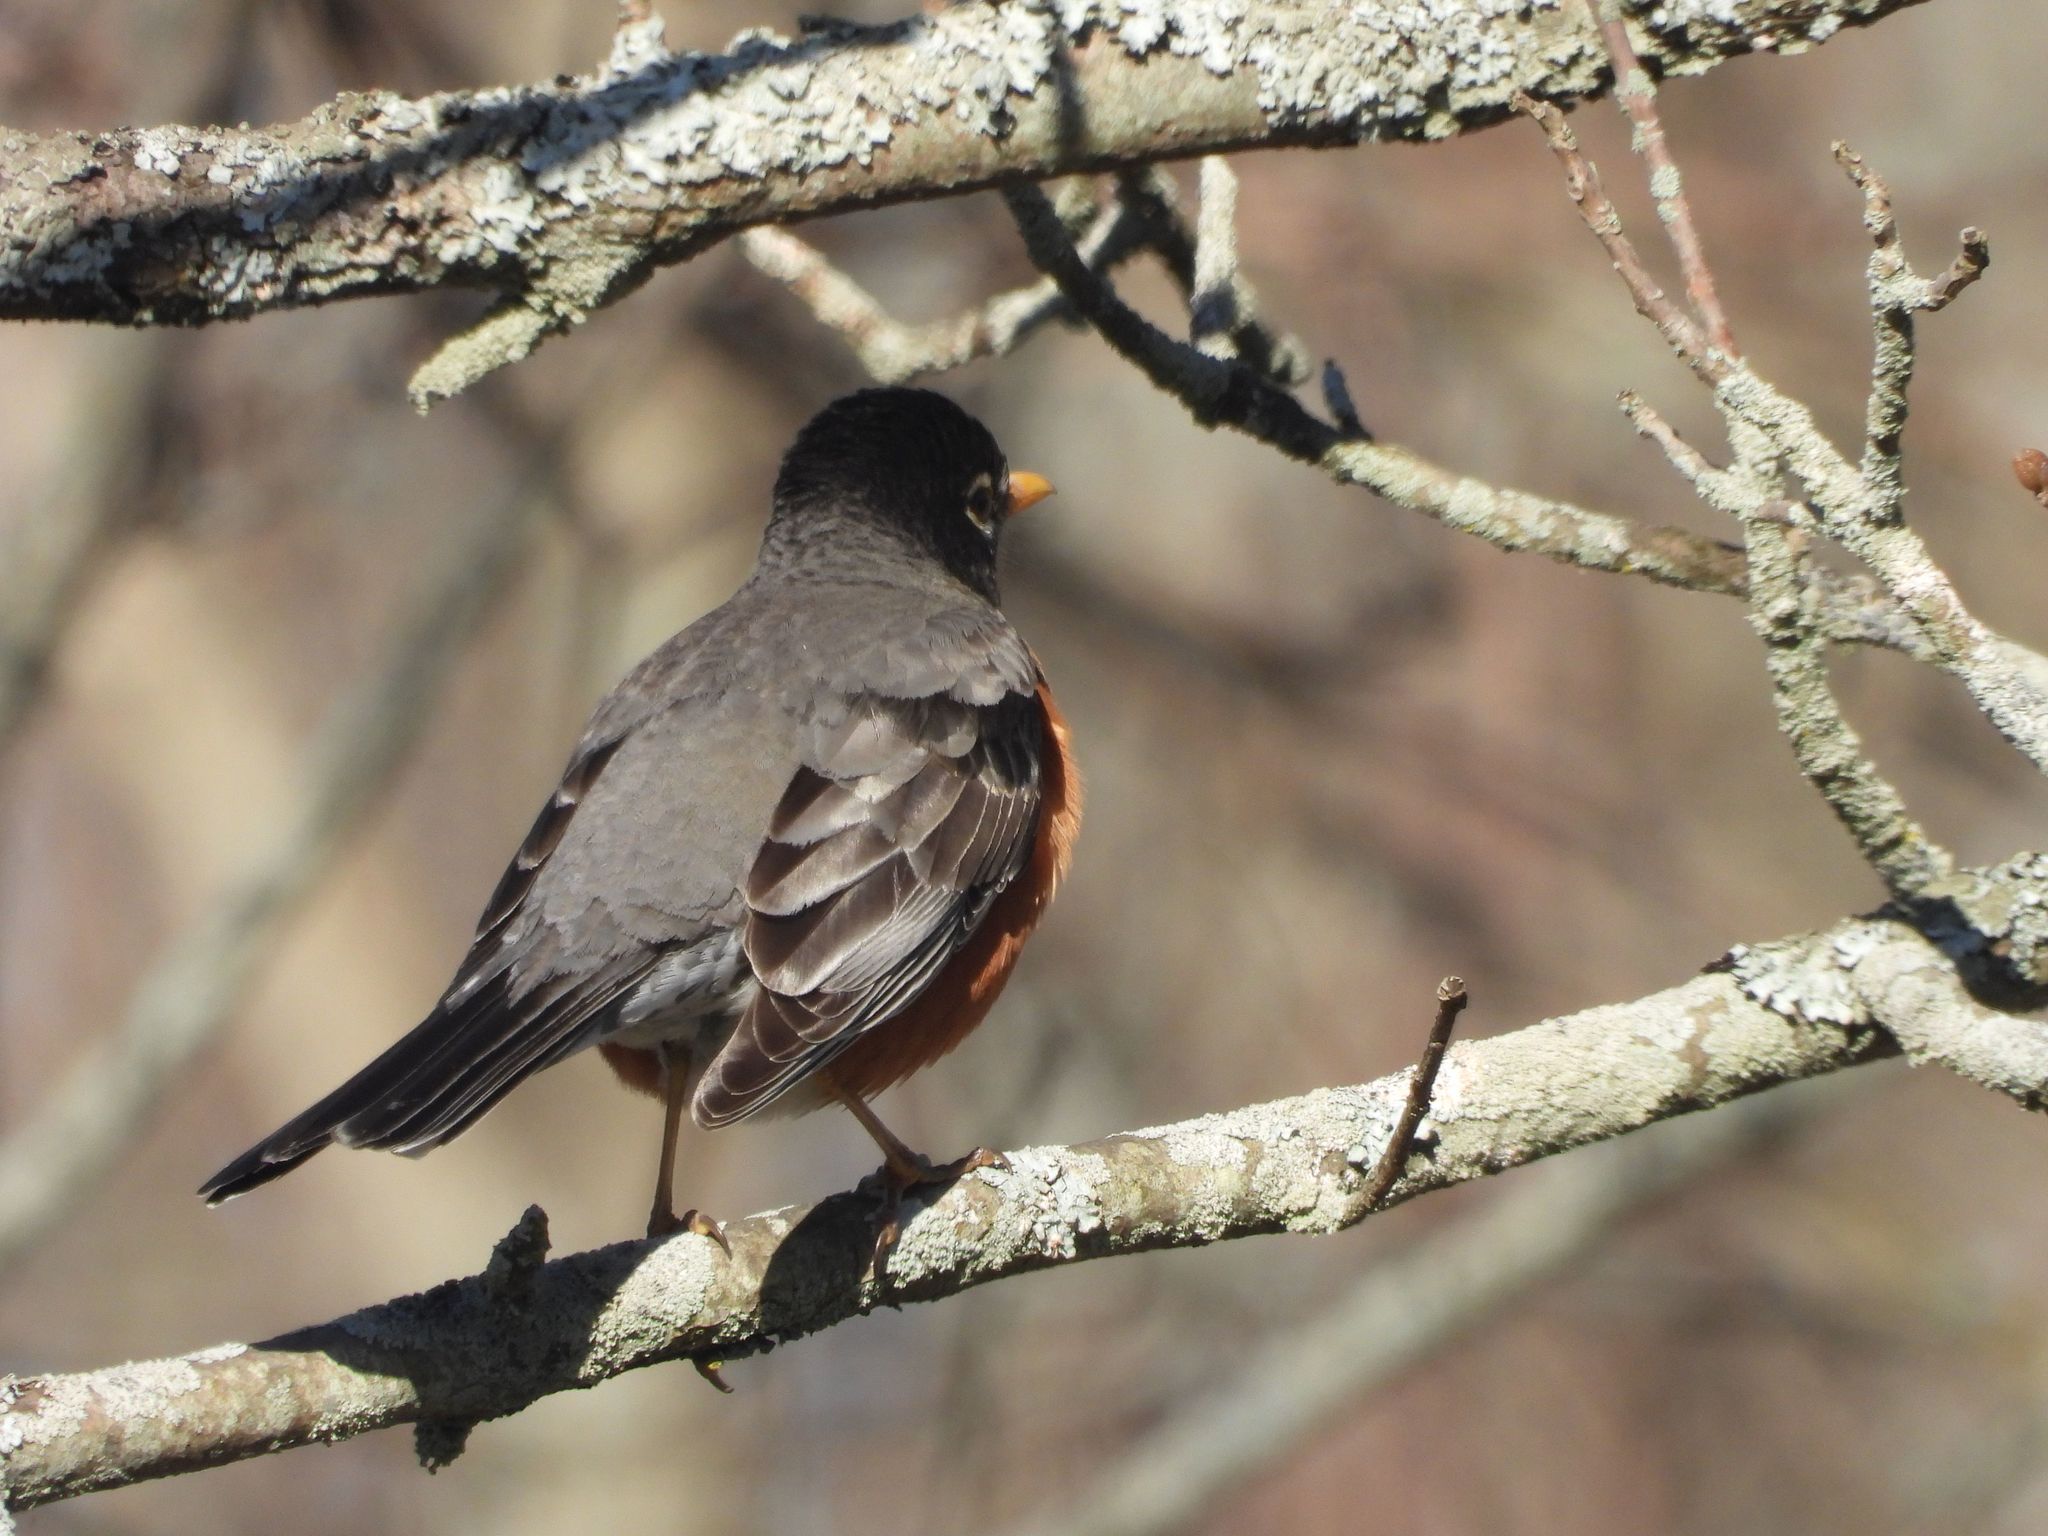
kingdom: Animalia
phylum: Chordata
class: Aves
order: Passeriformes
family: Turdidae
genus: Turdus
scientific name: Turdus migratorius
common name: American robin
